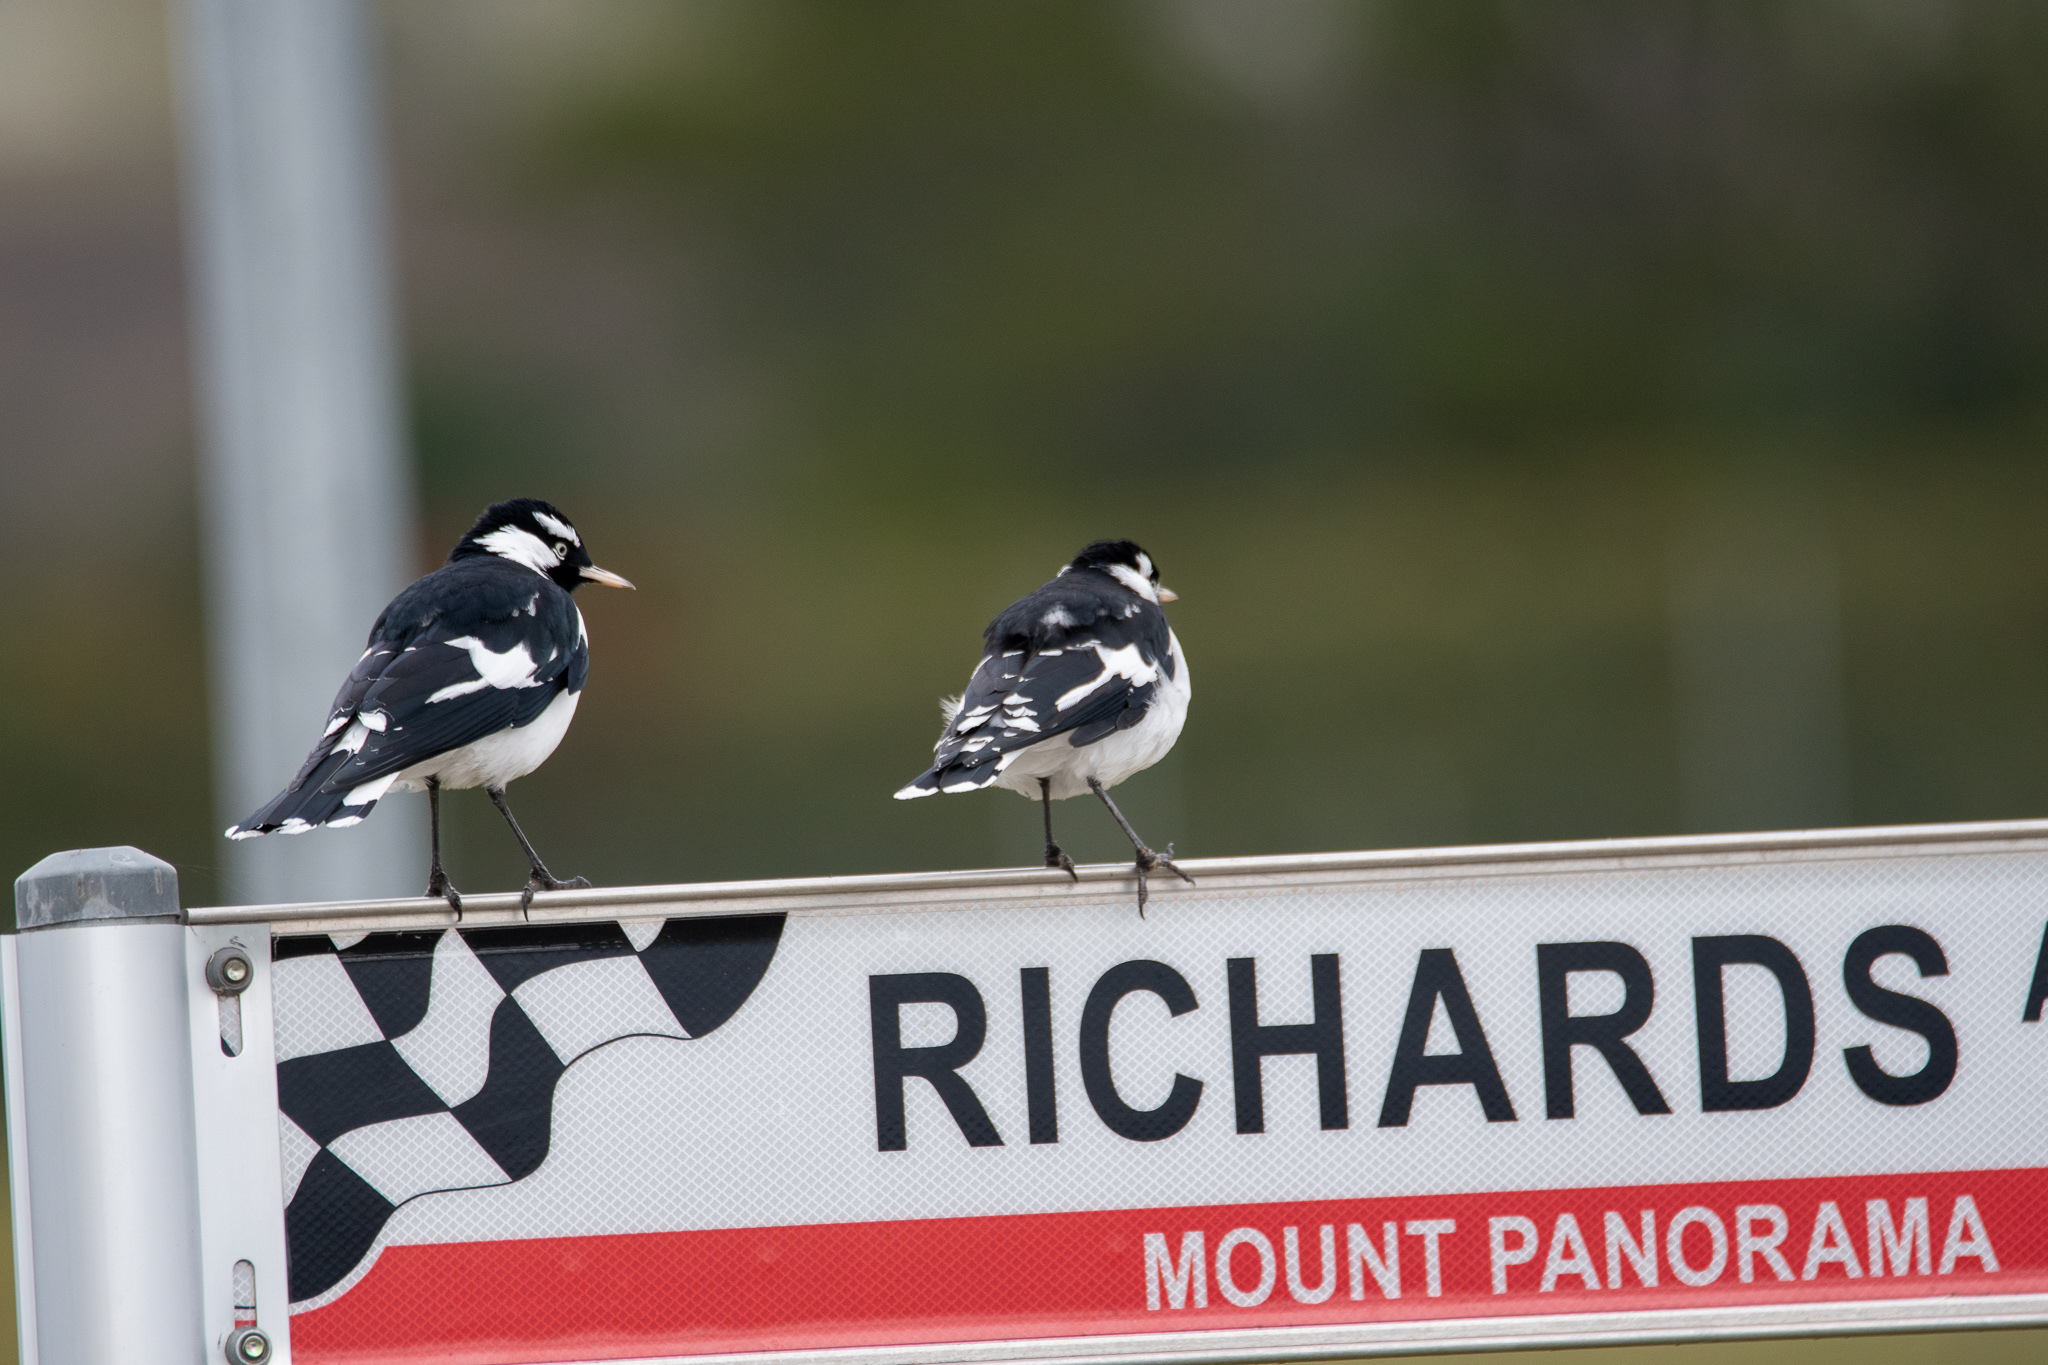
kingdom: Animalia
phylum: Chordata
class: Aves
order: Passeriformes
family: Monarchidae
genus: Grallina
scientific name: Grallina cyanoleuca
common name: Magpie-lark
